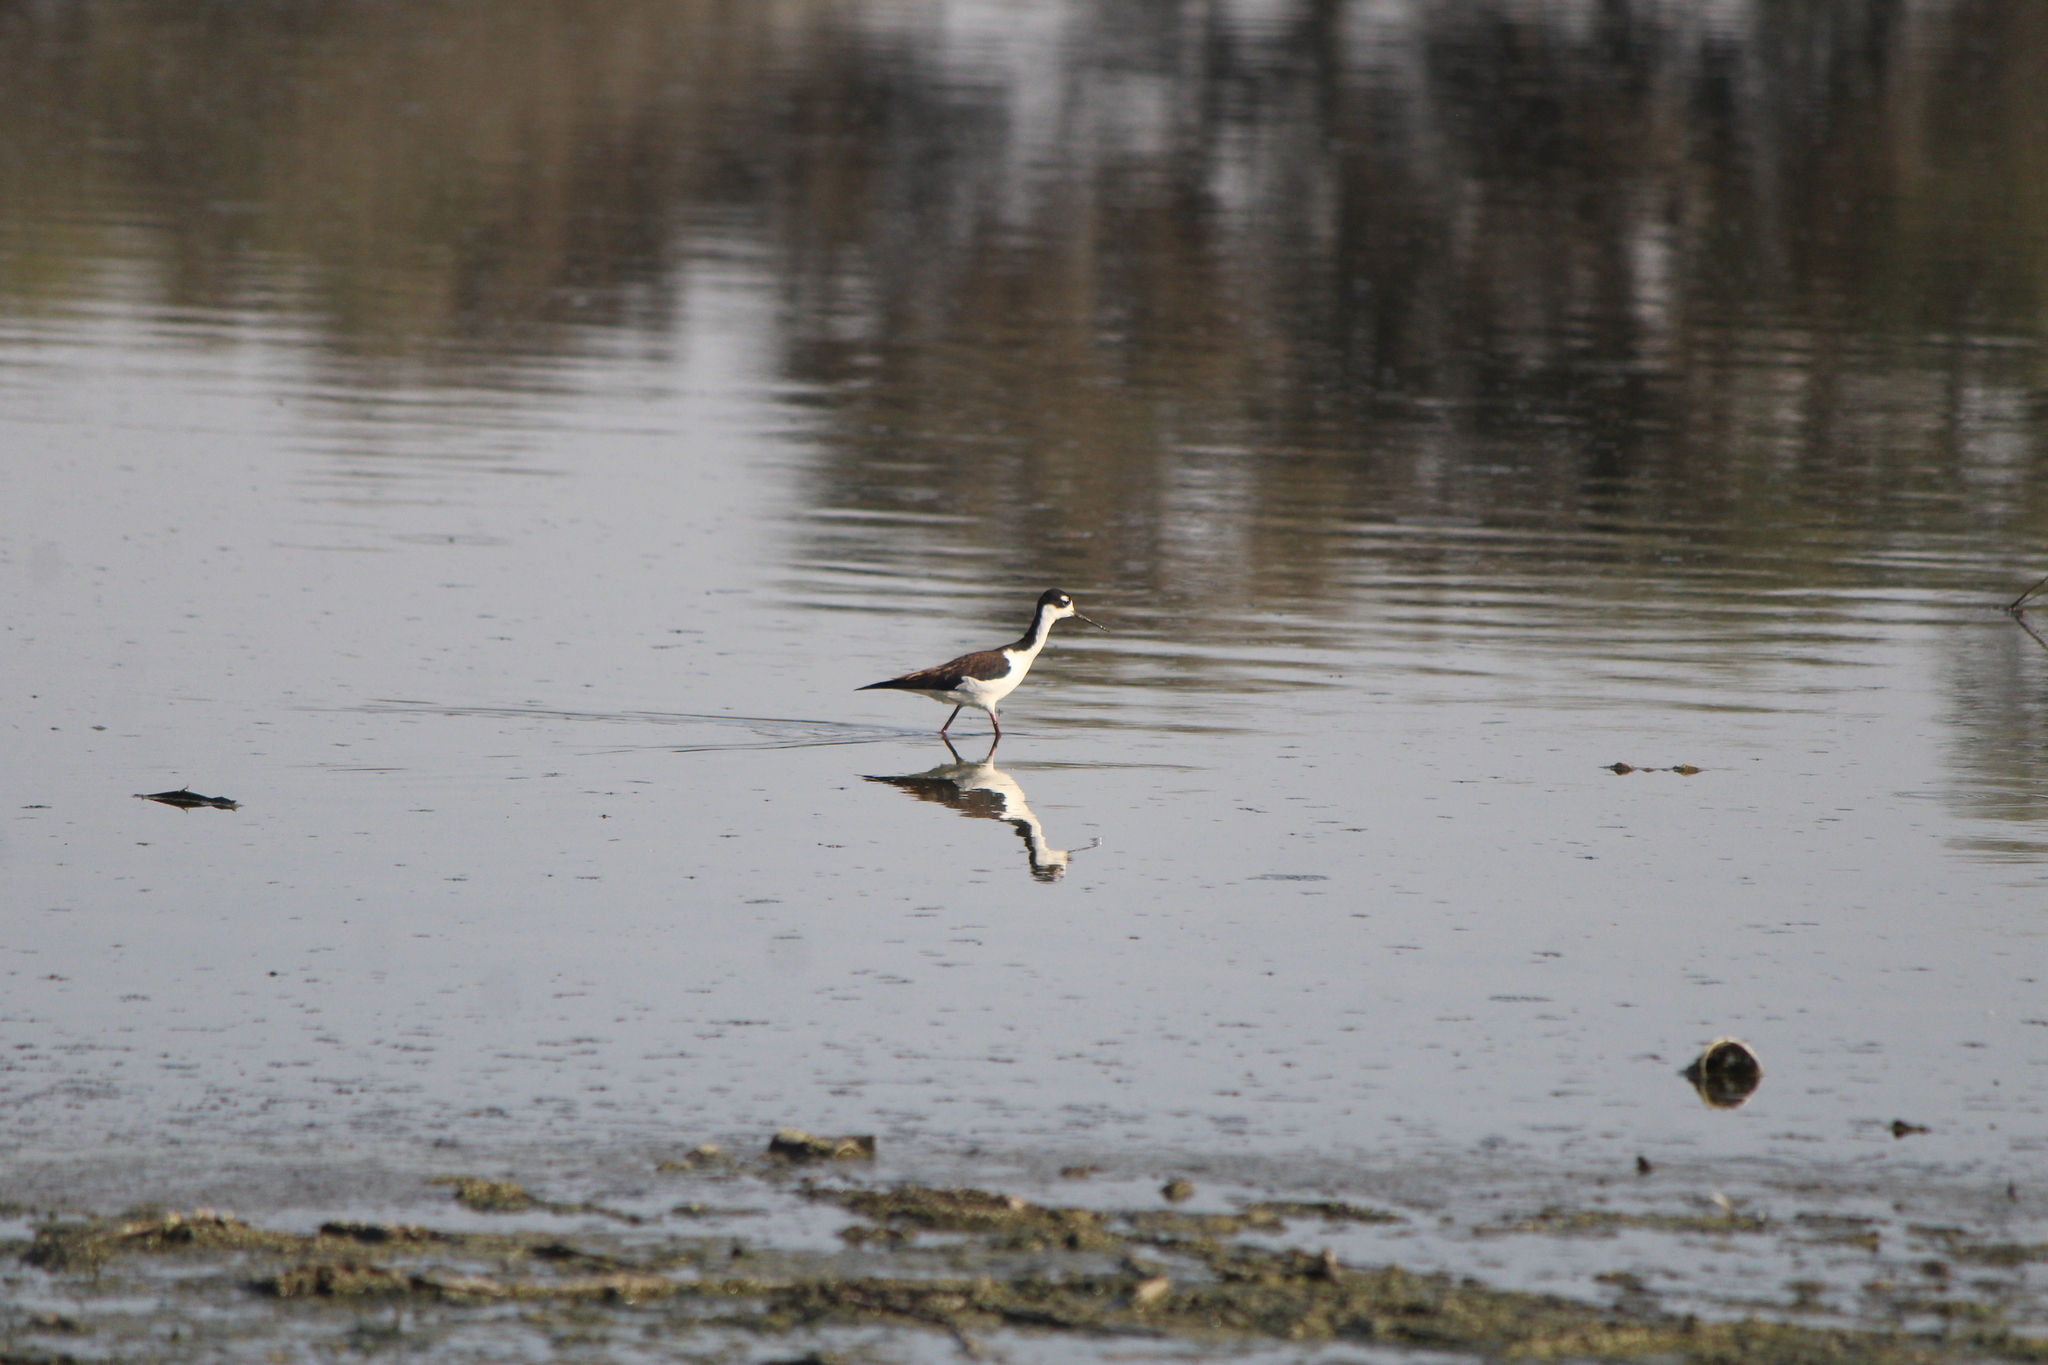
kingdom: Animalia
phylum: Chordata
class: Aves
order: Charadriiformes
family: Recurvirostridae
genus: Himantopus
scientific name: Himantopus mexicanus
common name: Black-necked stilt
